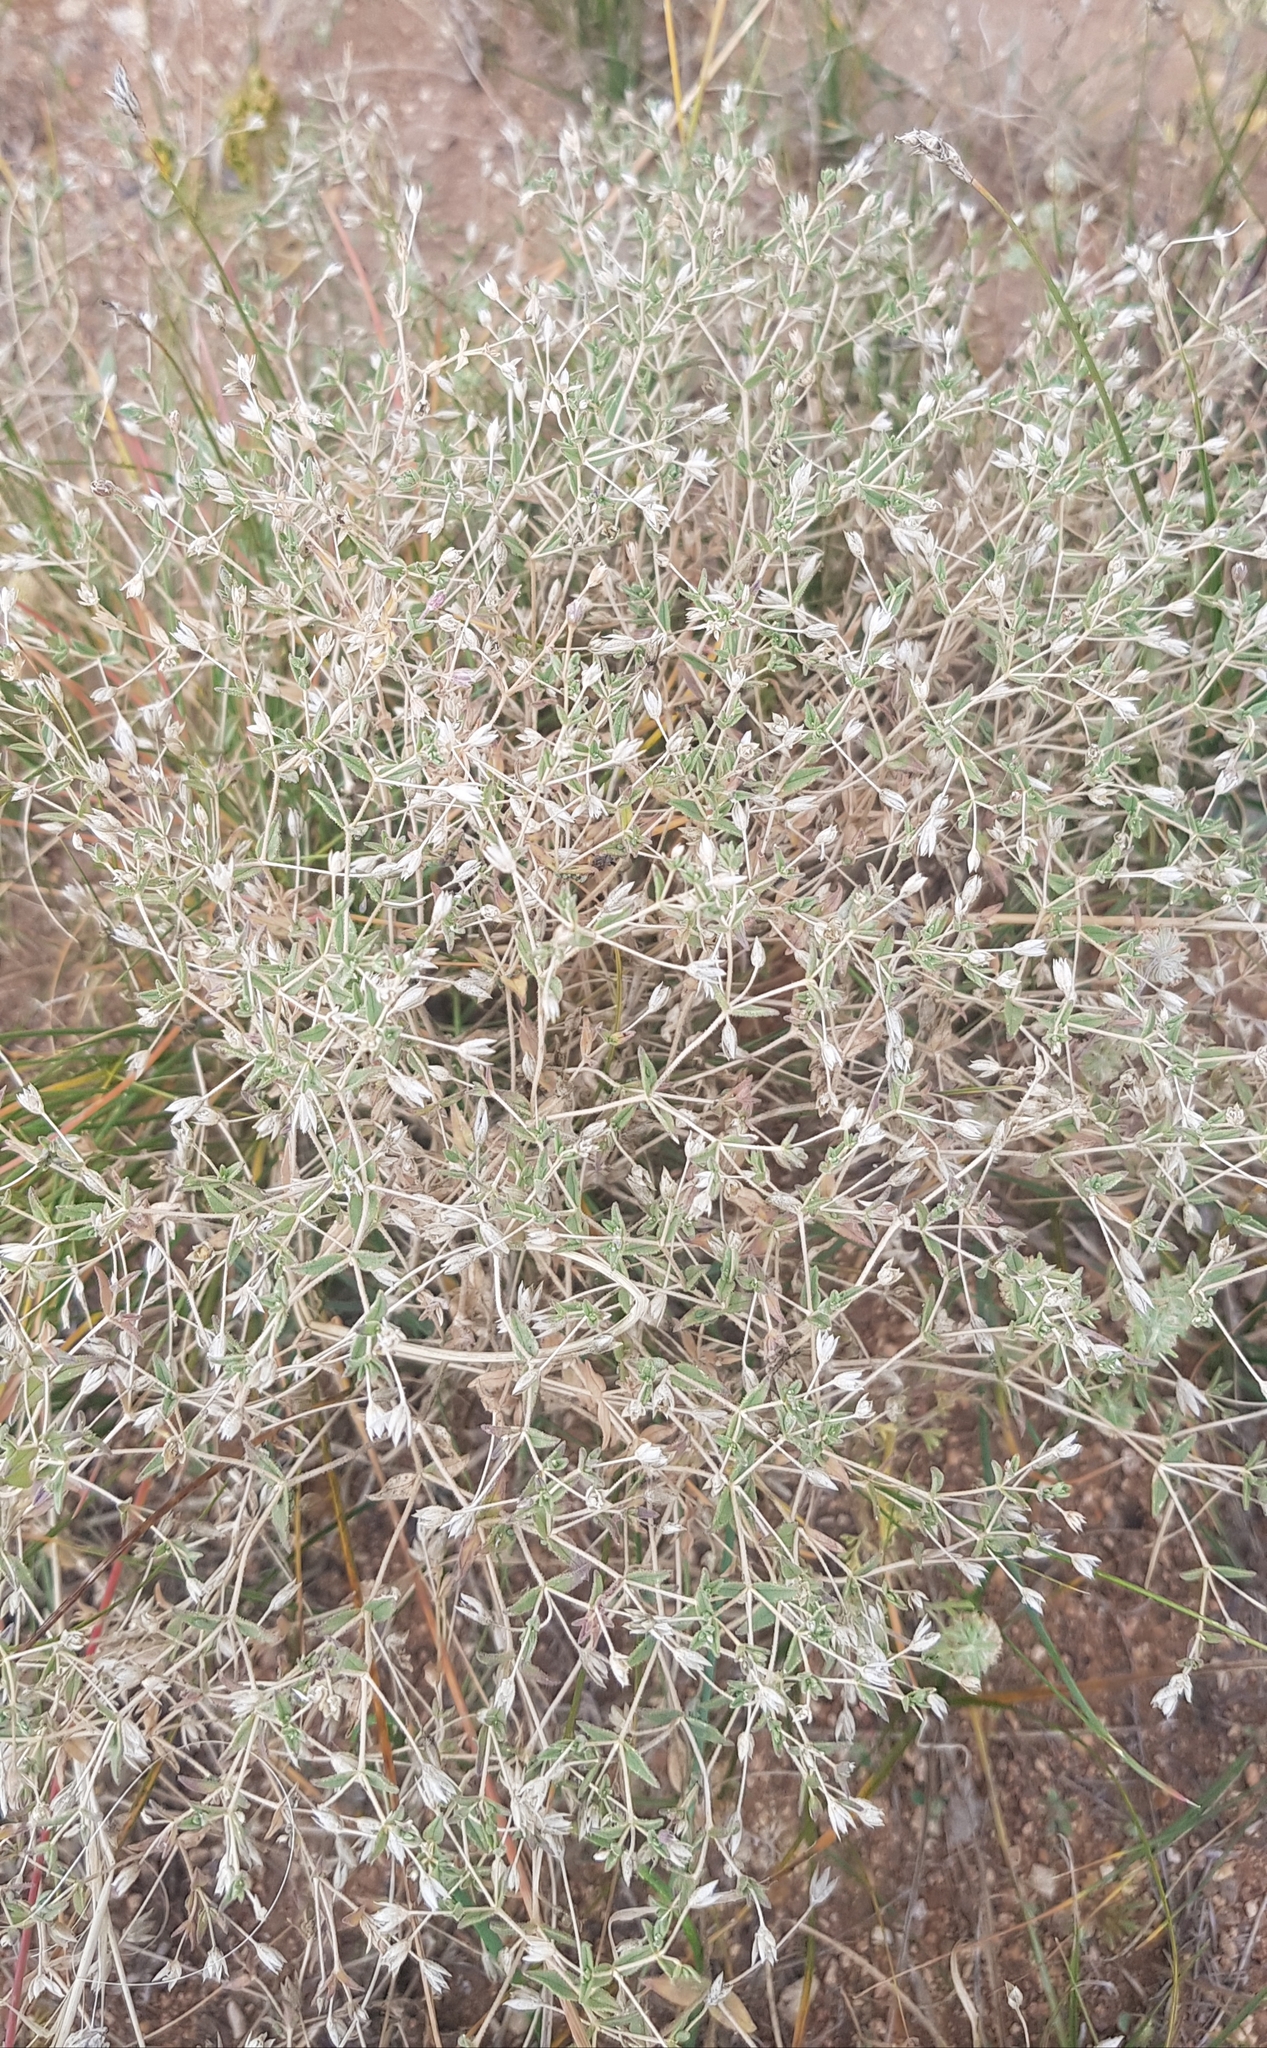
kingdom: Plantae
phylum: Tracheophyta
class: Magnoliopsida
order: Caryophyllales
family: Caryophyllaceae
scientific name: Caryophyllaceae
